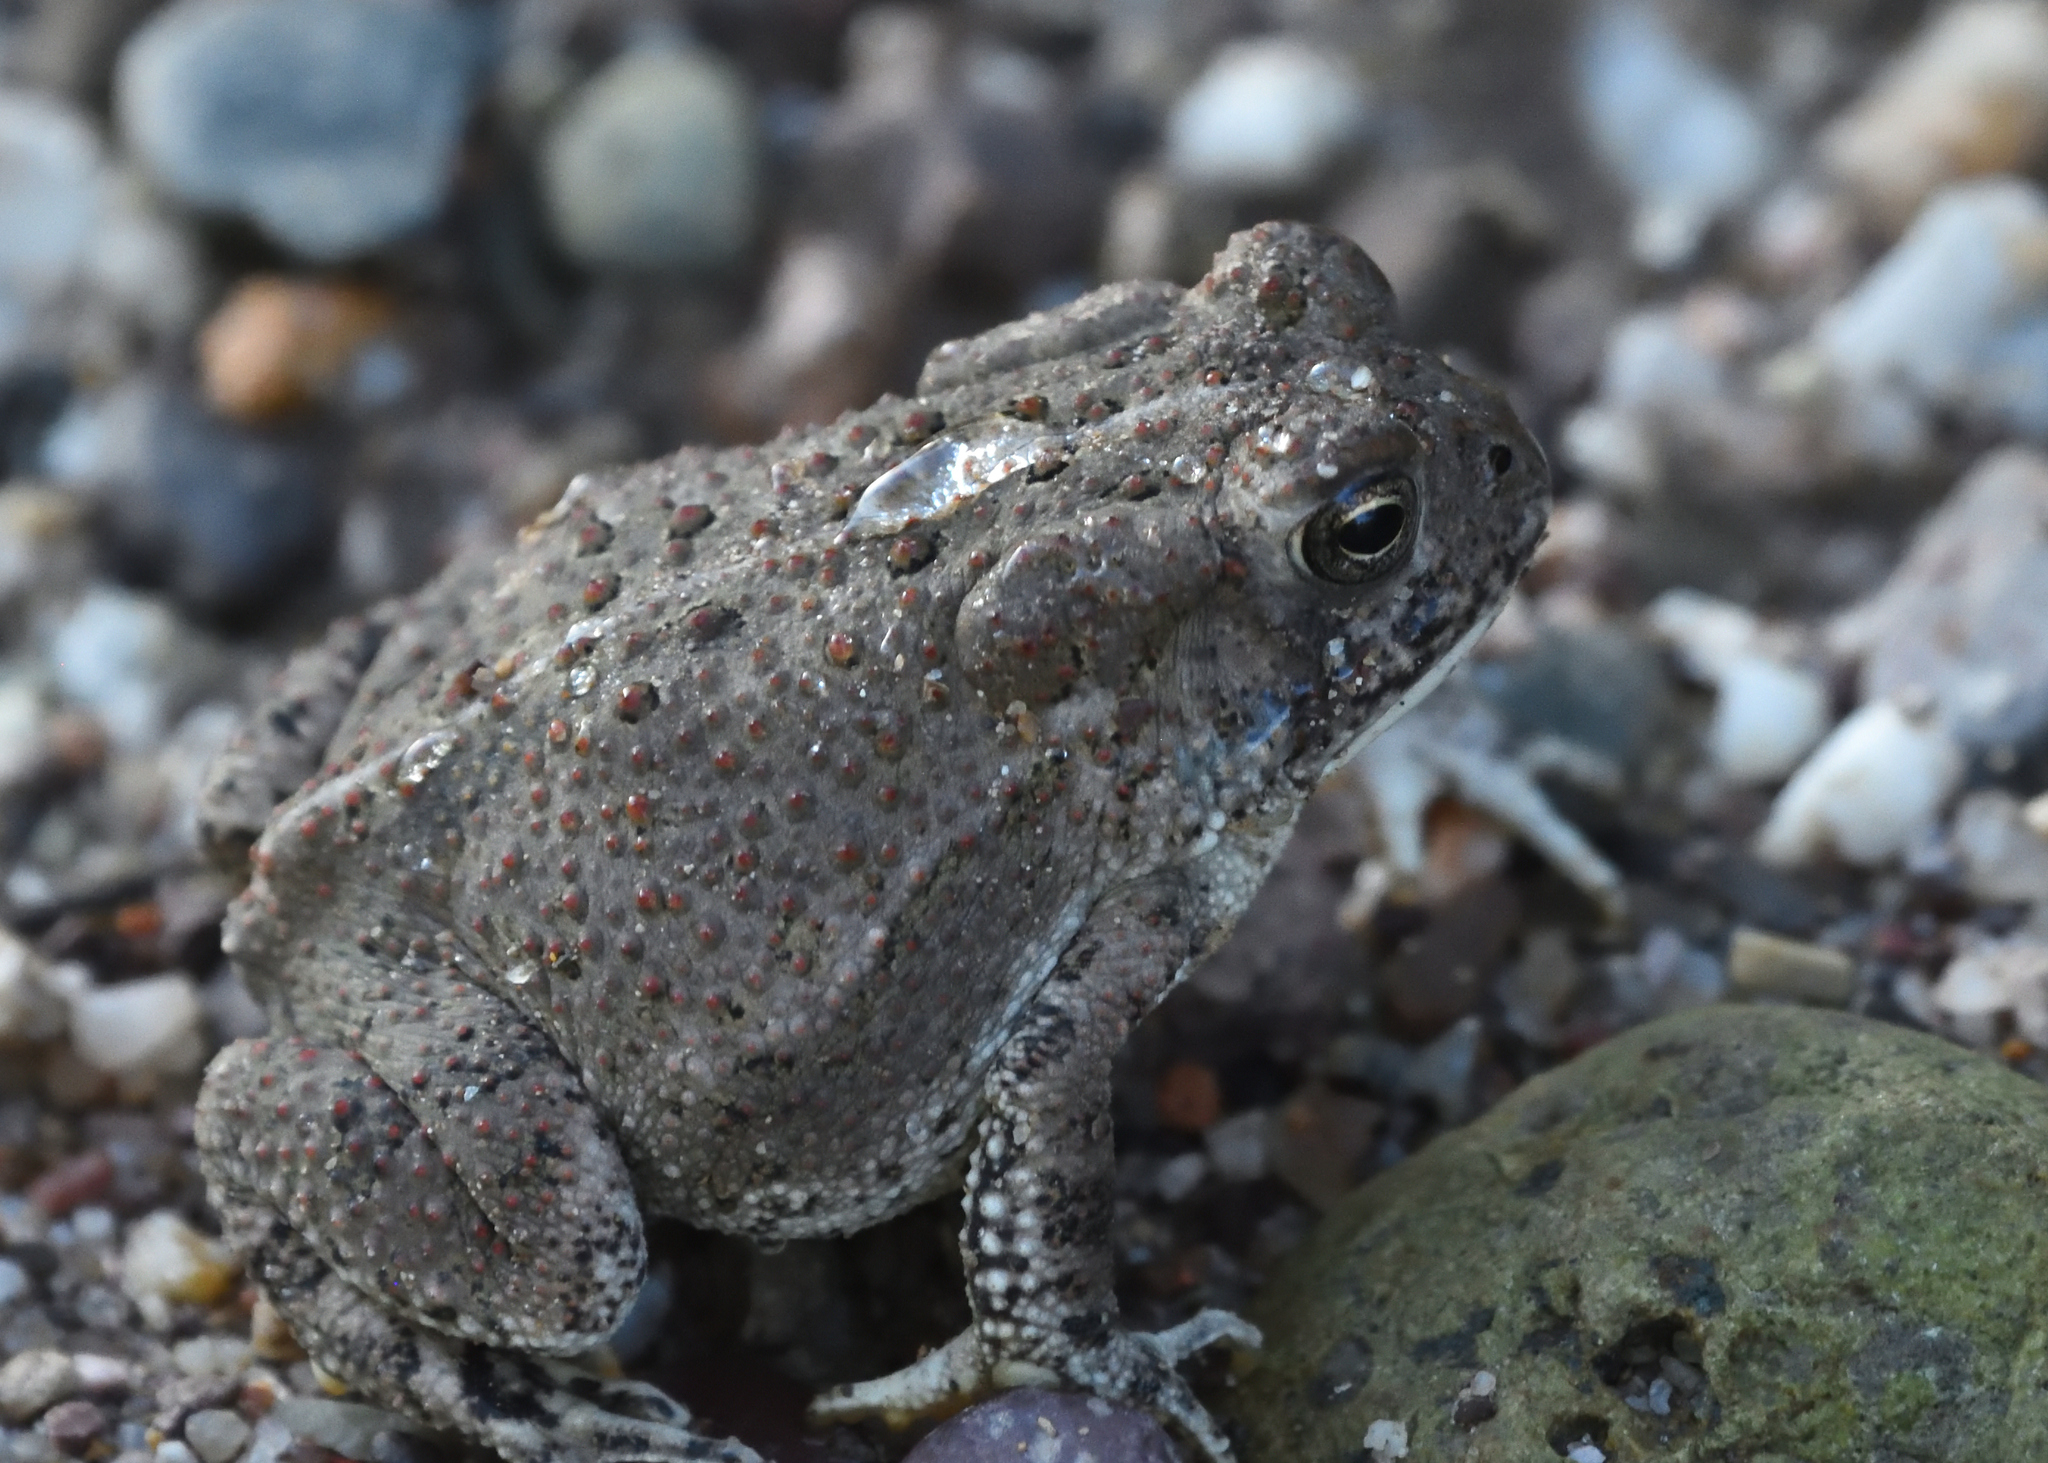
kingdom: Animalia
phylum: Chordata
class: Amphibia
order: Anura
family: Bufonidae
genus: Anaxyrus
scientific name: Anaxyrus woodhousii
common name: Woodhouse's toad
